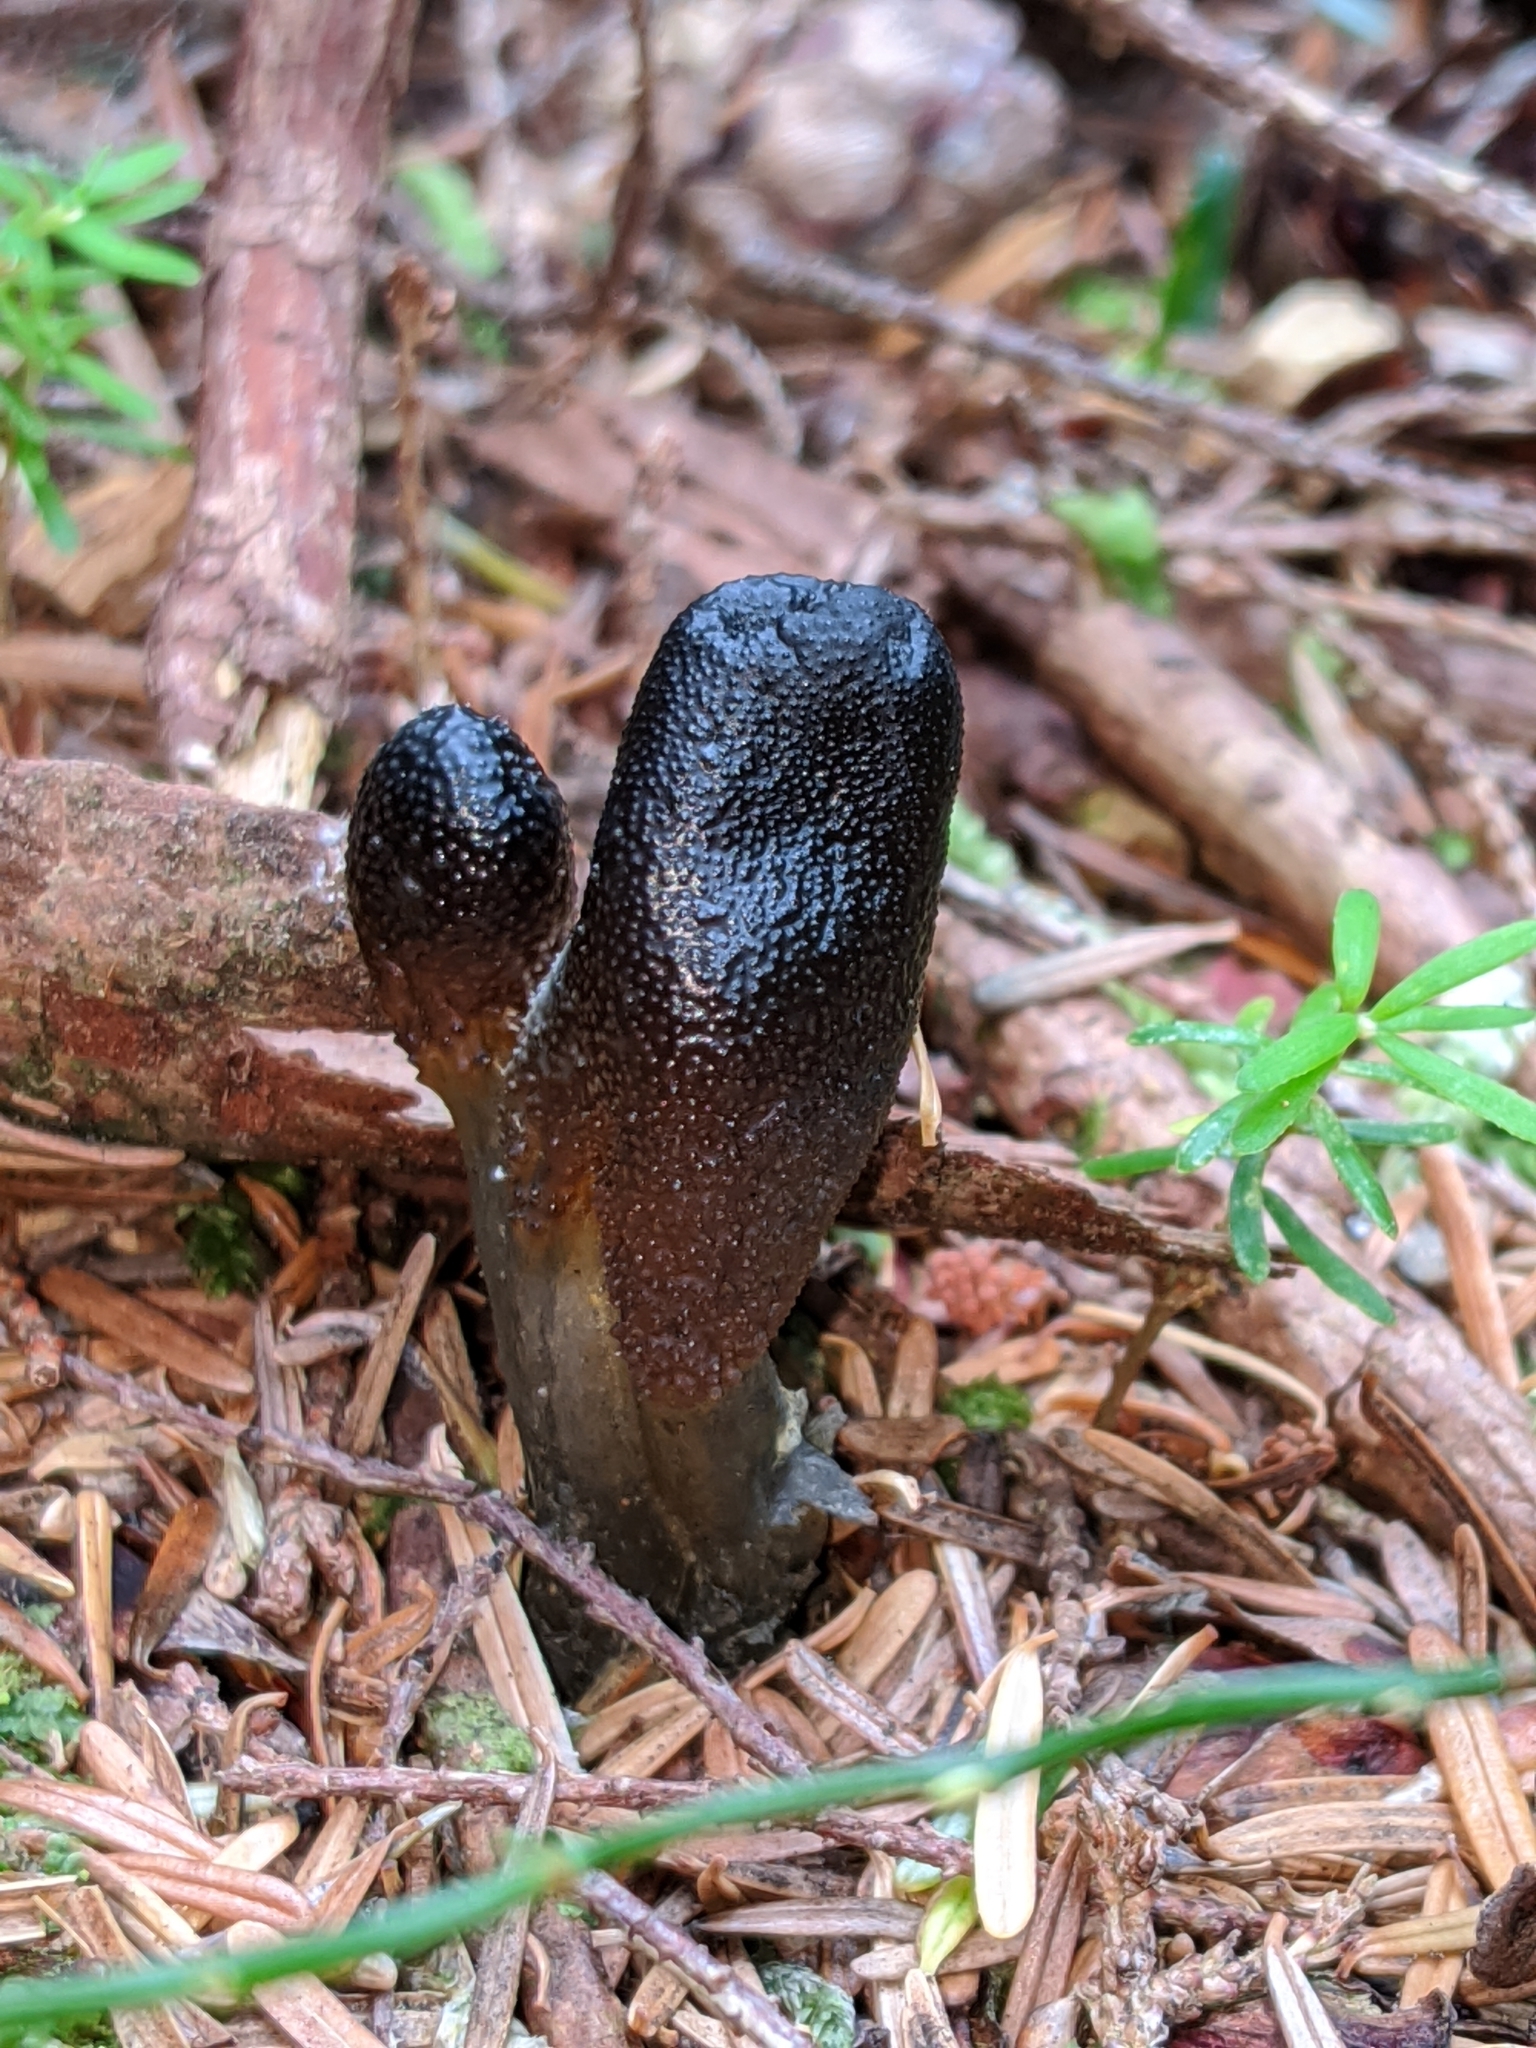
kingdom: Fungi
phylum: Ascomycota
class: Sordariomycetes
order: Hypocreales
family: Ophiocordycipitaceae
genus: Tolypocladium
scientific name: Tolypocladium ophioglossoides
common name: Snaketongue truffleclub
